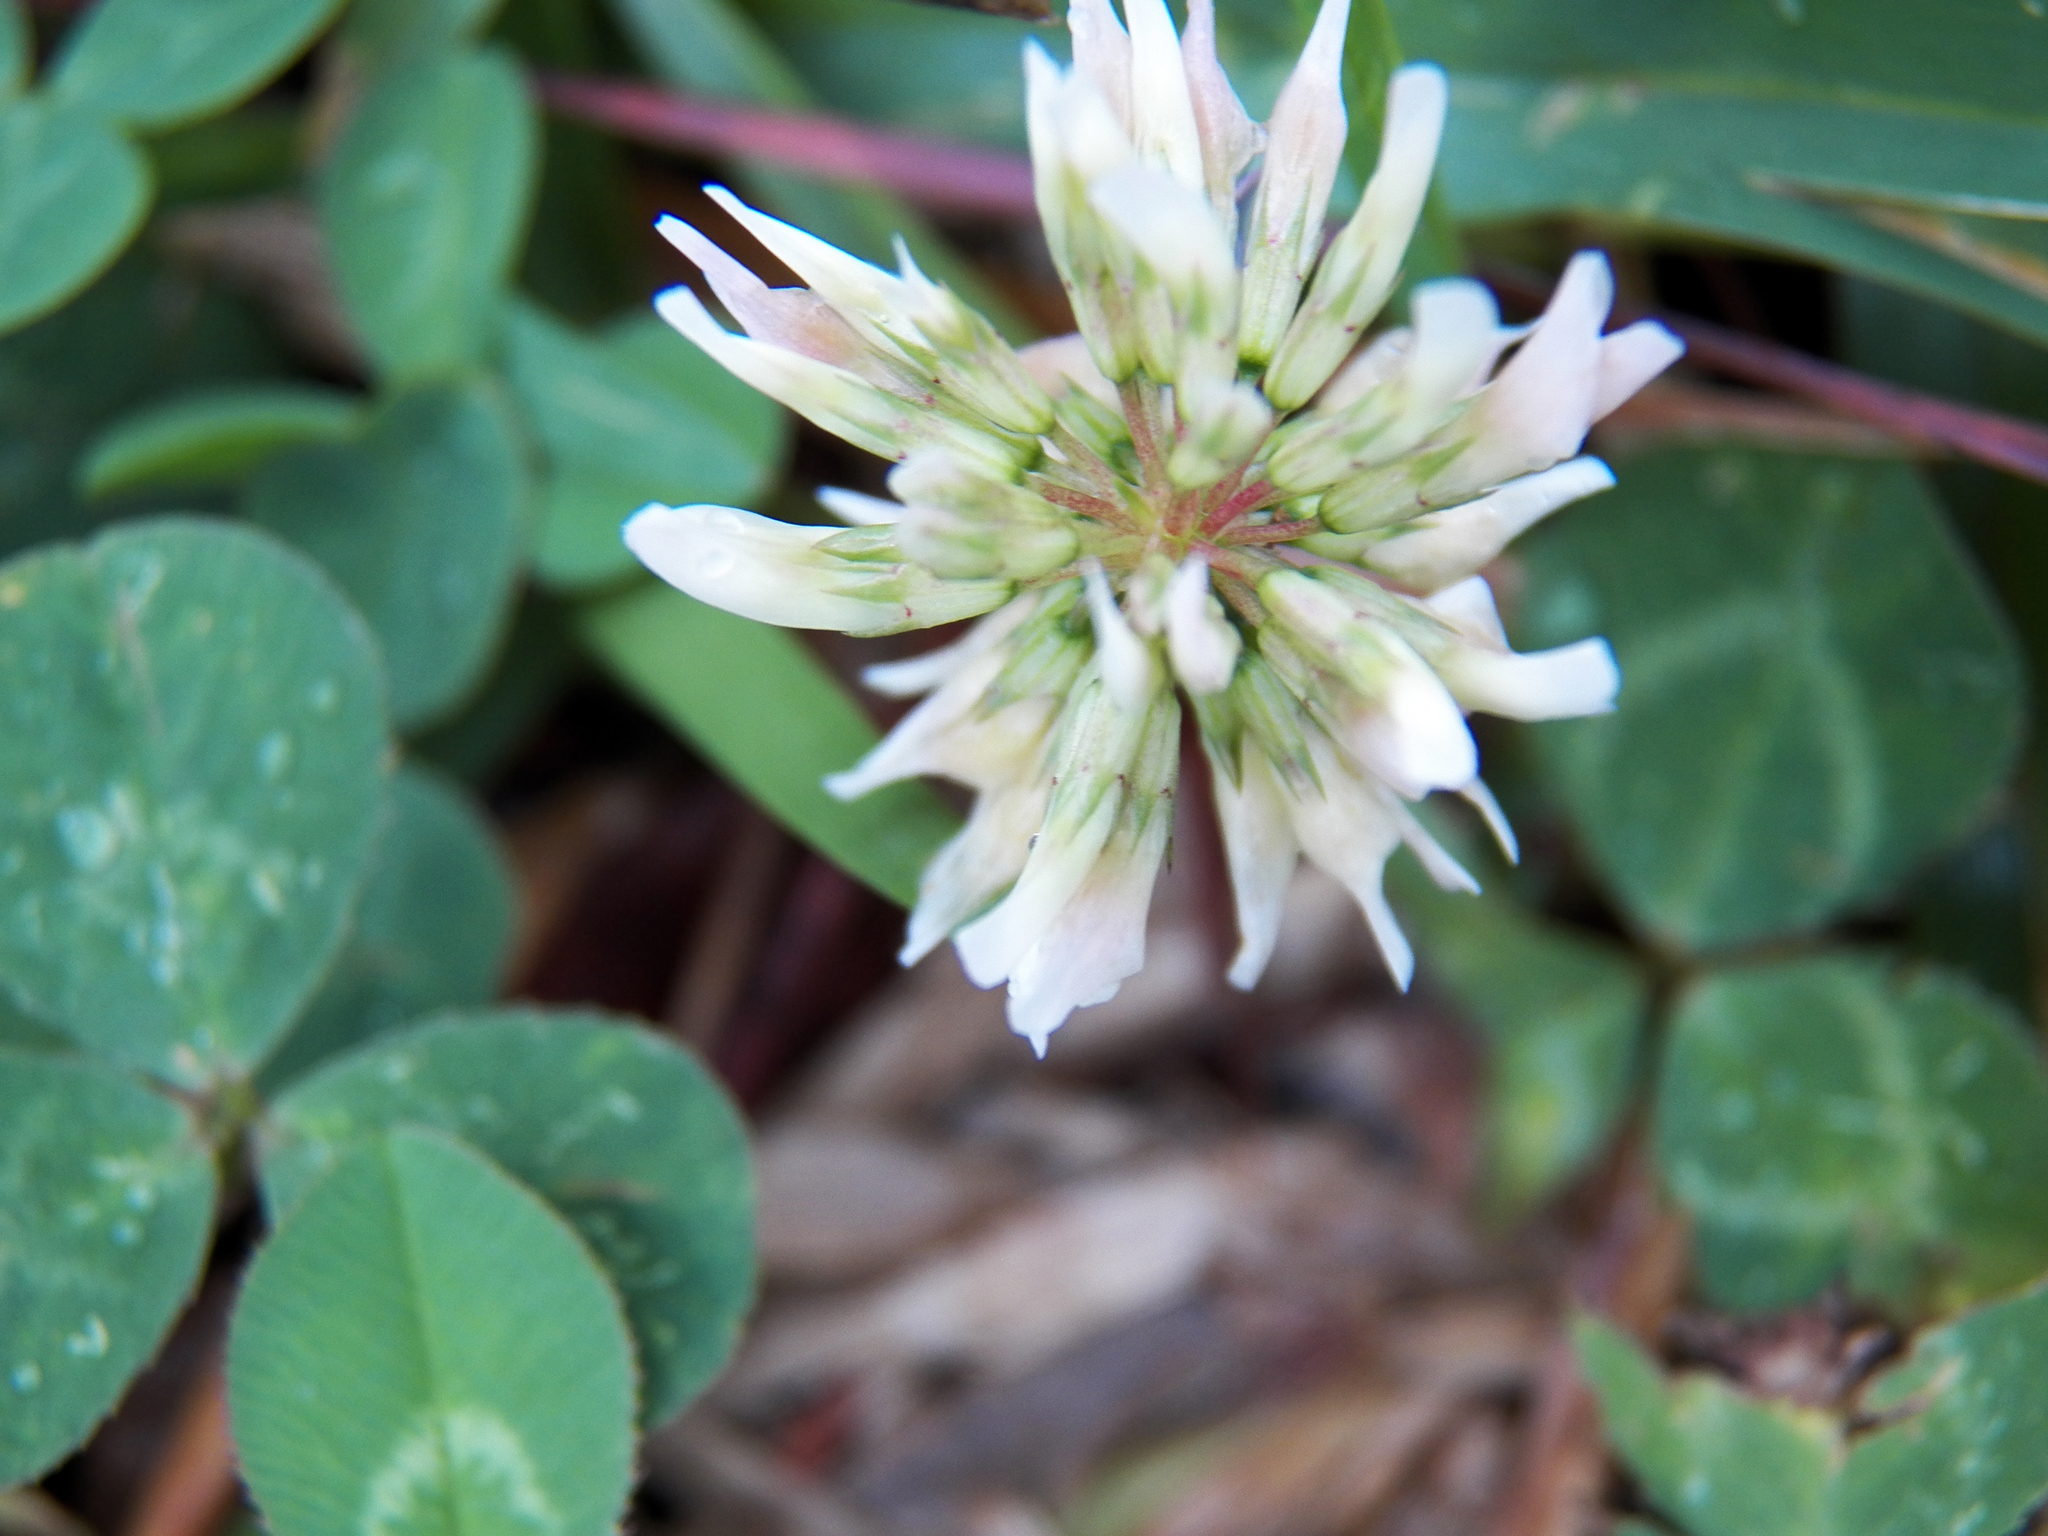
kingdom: Plantae
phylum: Tracheophyta
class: Magnoliopsida
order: Fabales
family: Fabaceae
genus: Trifolium
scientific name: Trifolium repens
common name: White clover
